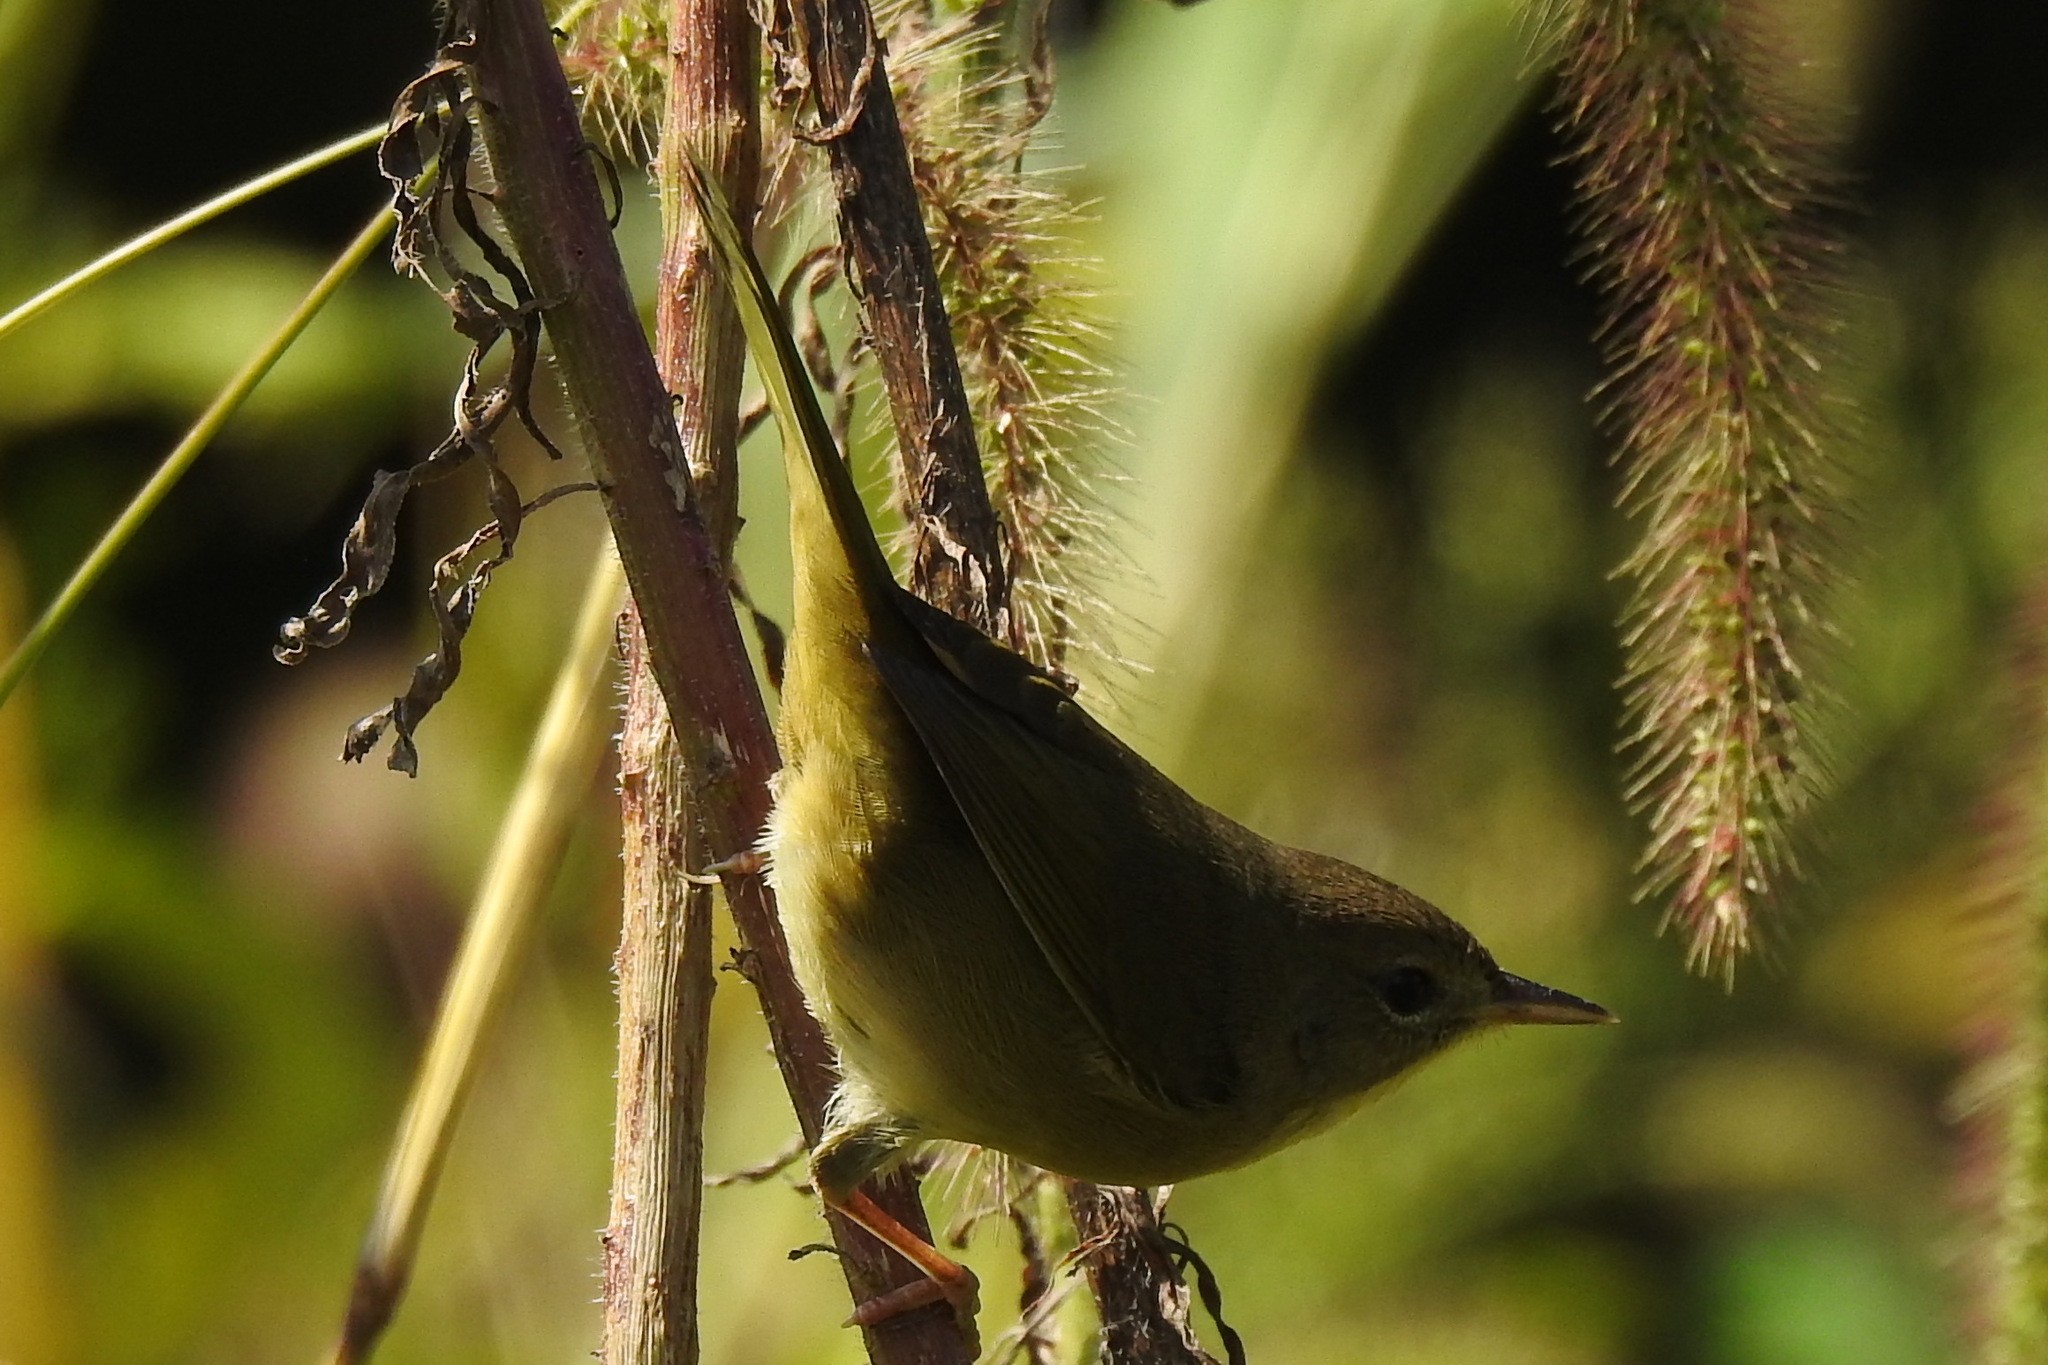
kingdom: Animalia
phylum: Chordata
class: Aves
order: Passeriformes
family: Parulidae
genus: Geothlypis
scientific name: Geothlypis trichas
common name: Common yellowthroat
